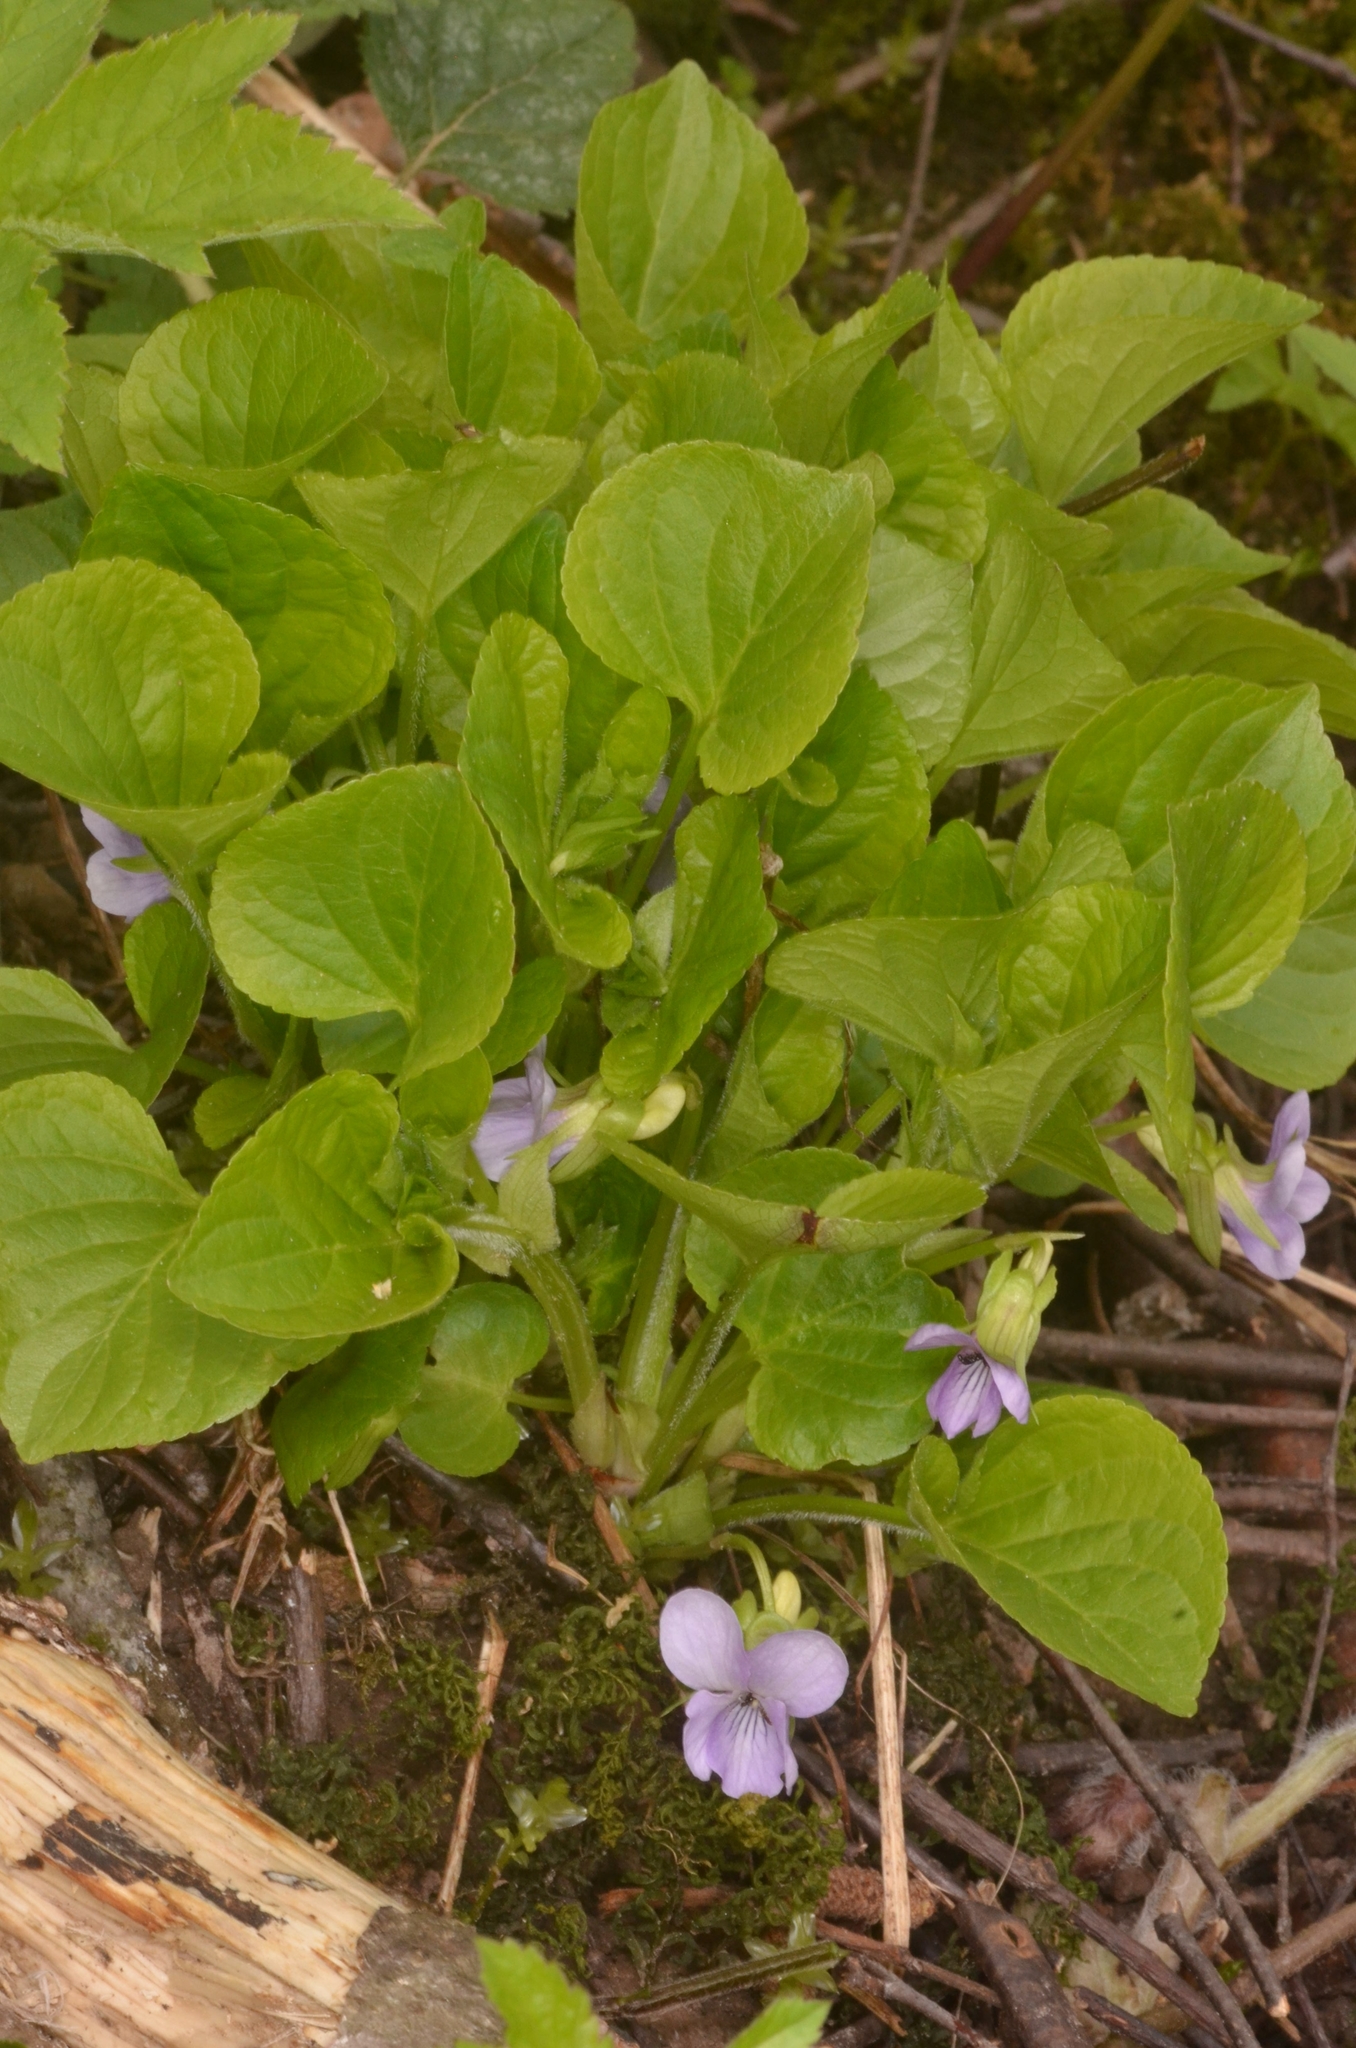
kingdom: Plantae
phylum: Tracheophyta
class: Magnoliopsida
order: Malpighiales
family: Violaceae
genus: Viola
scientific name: Viola mirabilis
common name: Wonder violet
